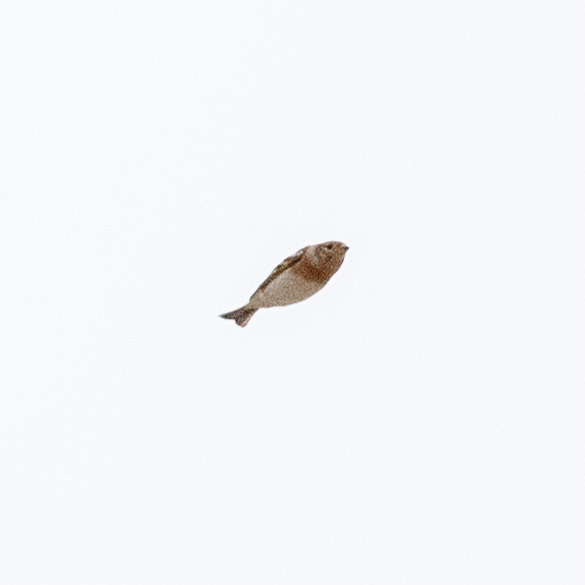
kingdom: Animalia
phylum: Chordata
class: Aves
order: Passeriformes
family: Fringillidae
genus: Fringilla
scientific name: Fringilla montifringilla
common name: Brambling
